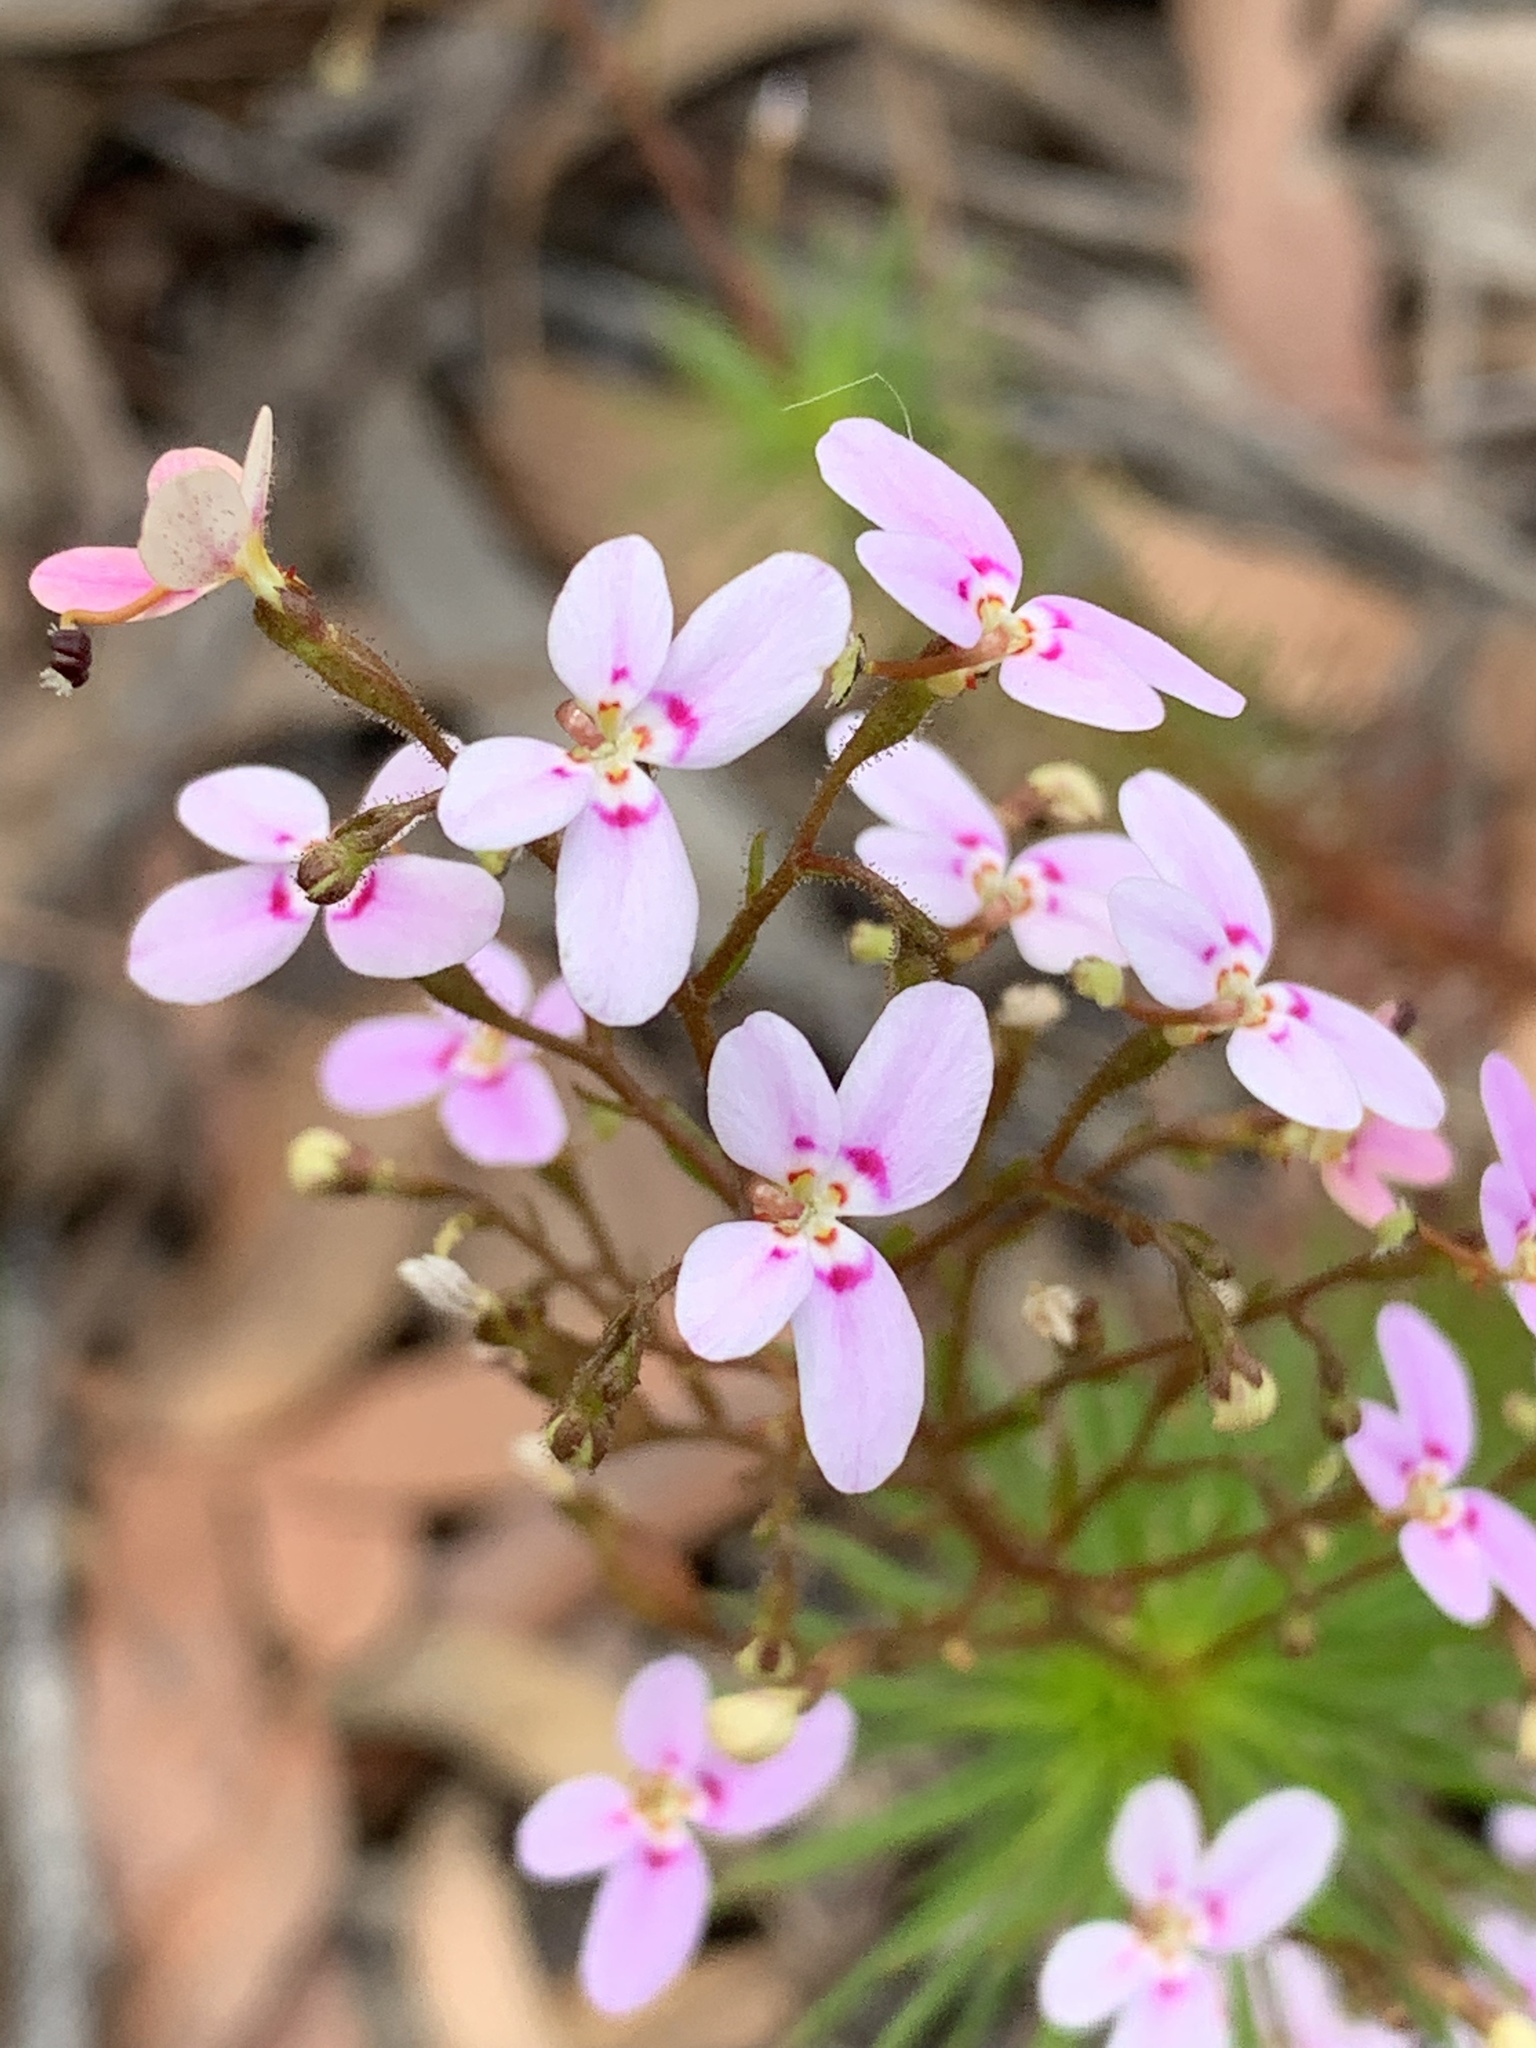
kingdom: Plantae
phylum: Tracheophyta
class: Magnoliopsida
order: Asterales
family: Stylidiaceae
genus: Stylidium
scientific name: Stylidium laricifolium
